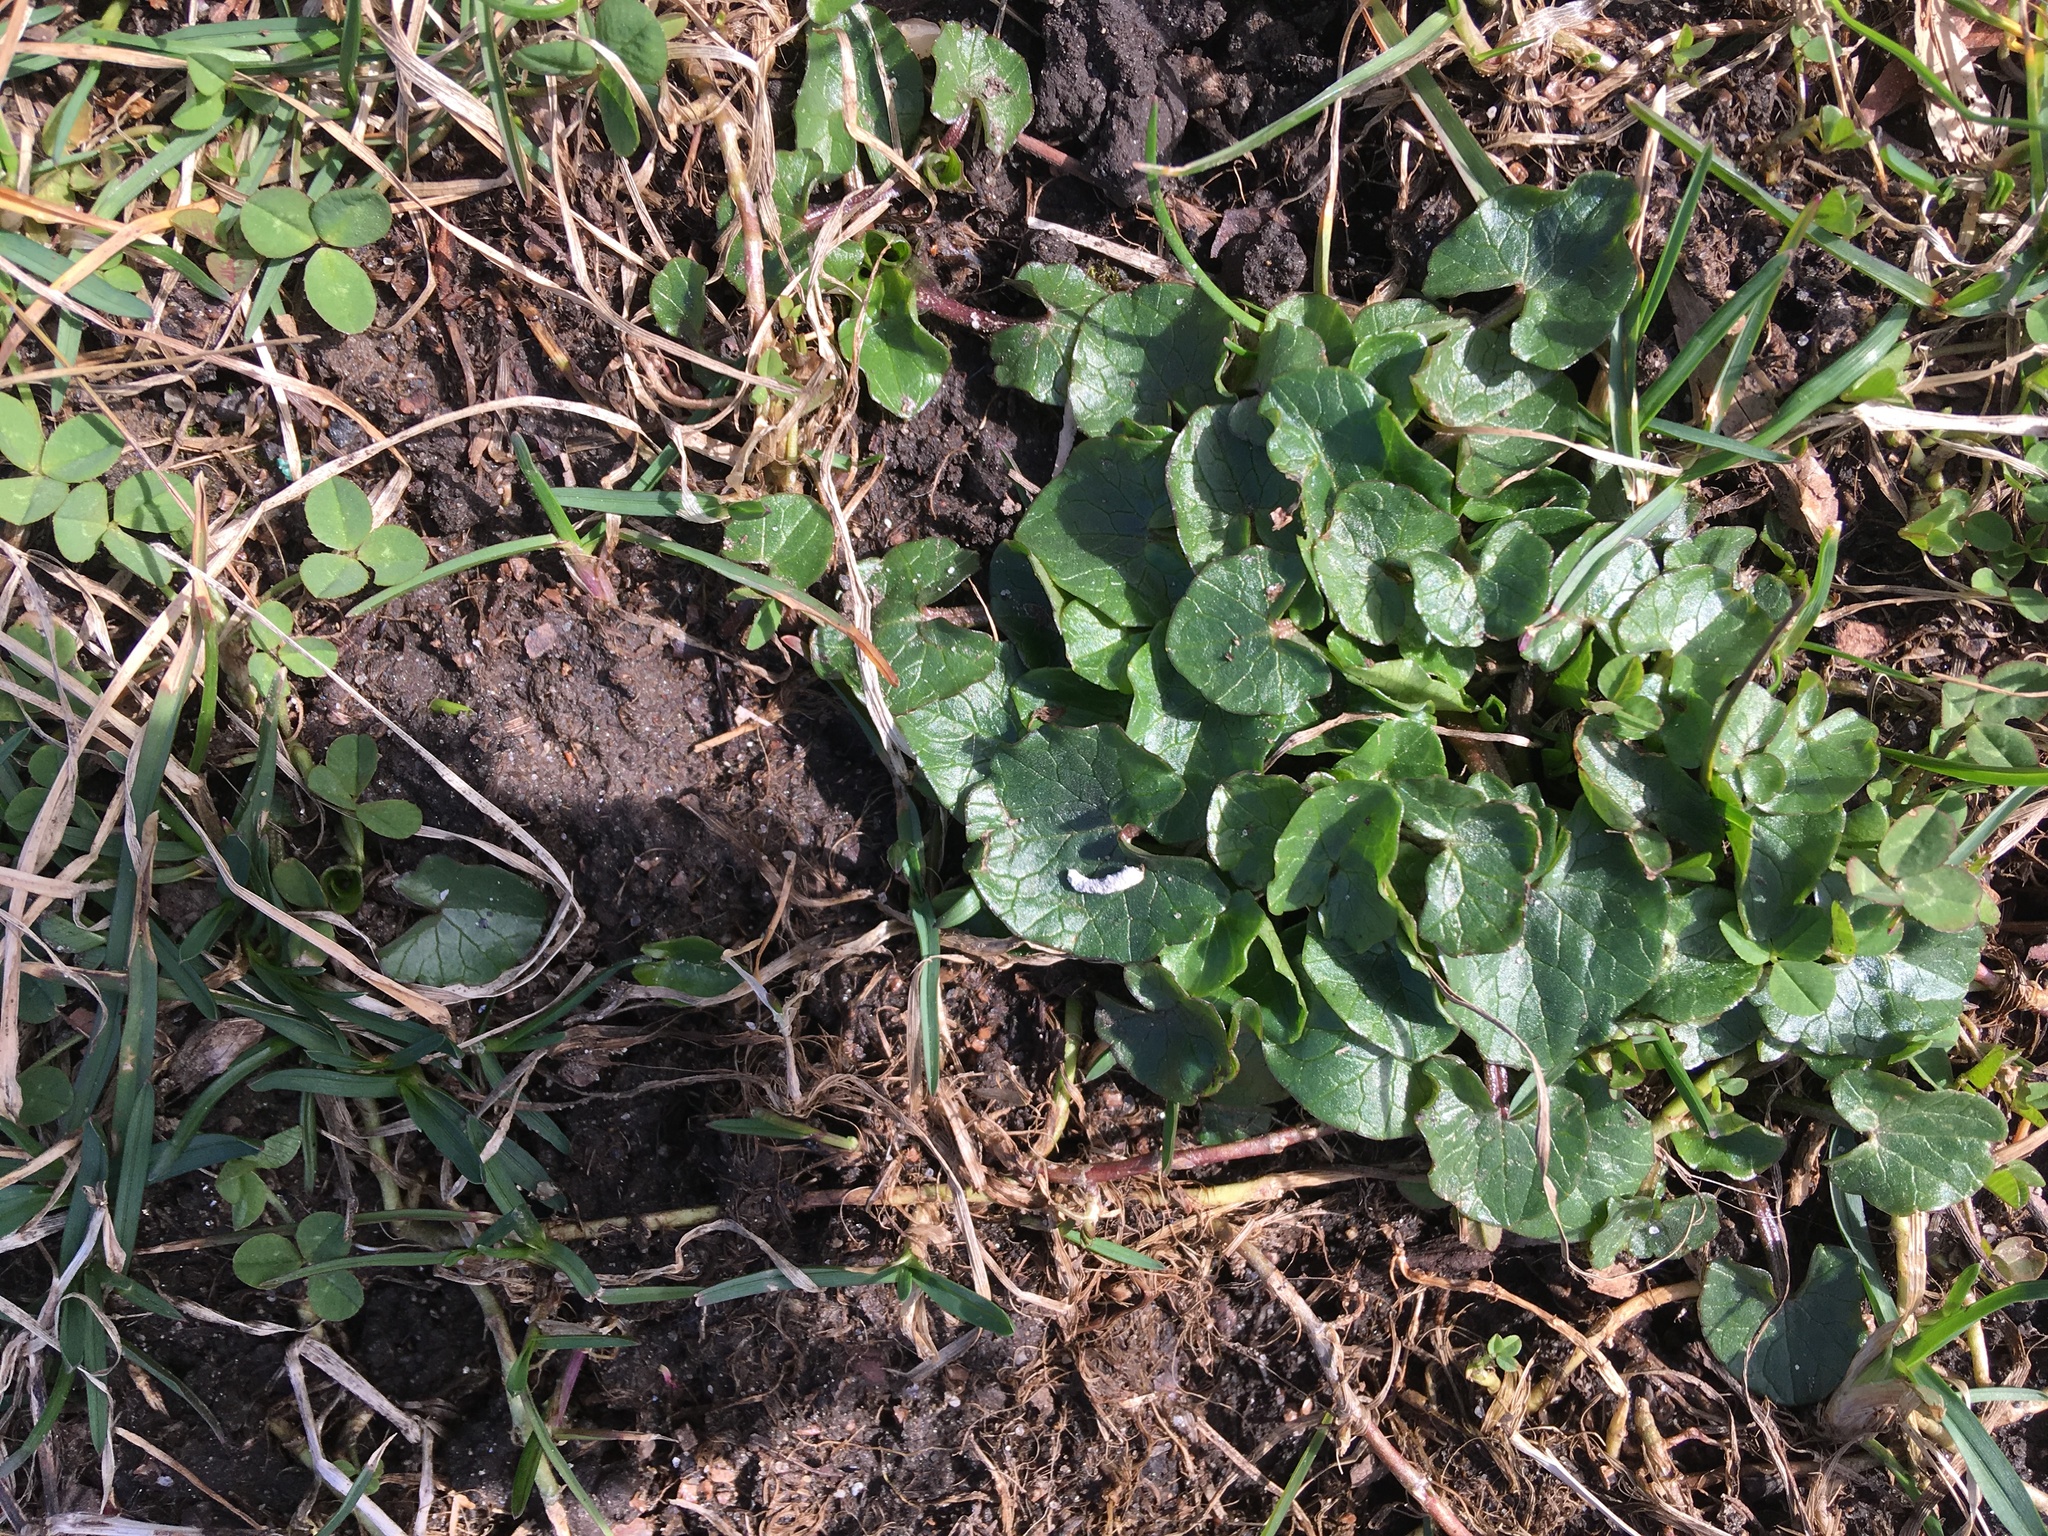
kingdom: Plantae
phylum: Tracheophyta
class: Magnoliopsida
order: Ranunculales
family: Ranunculaceae
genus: Ficaria
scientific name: Ficaria verna
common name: Lesser celandine
